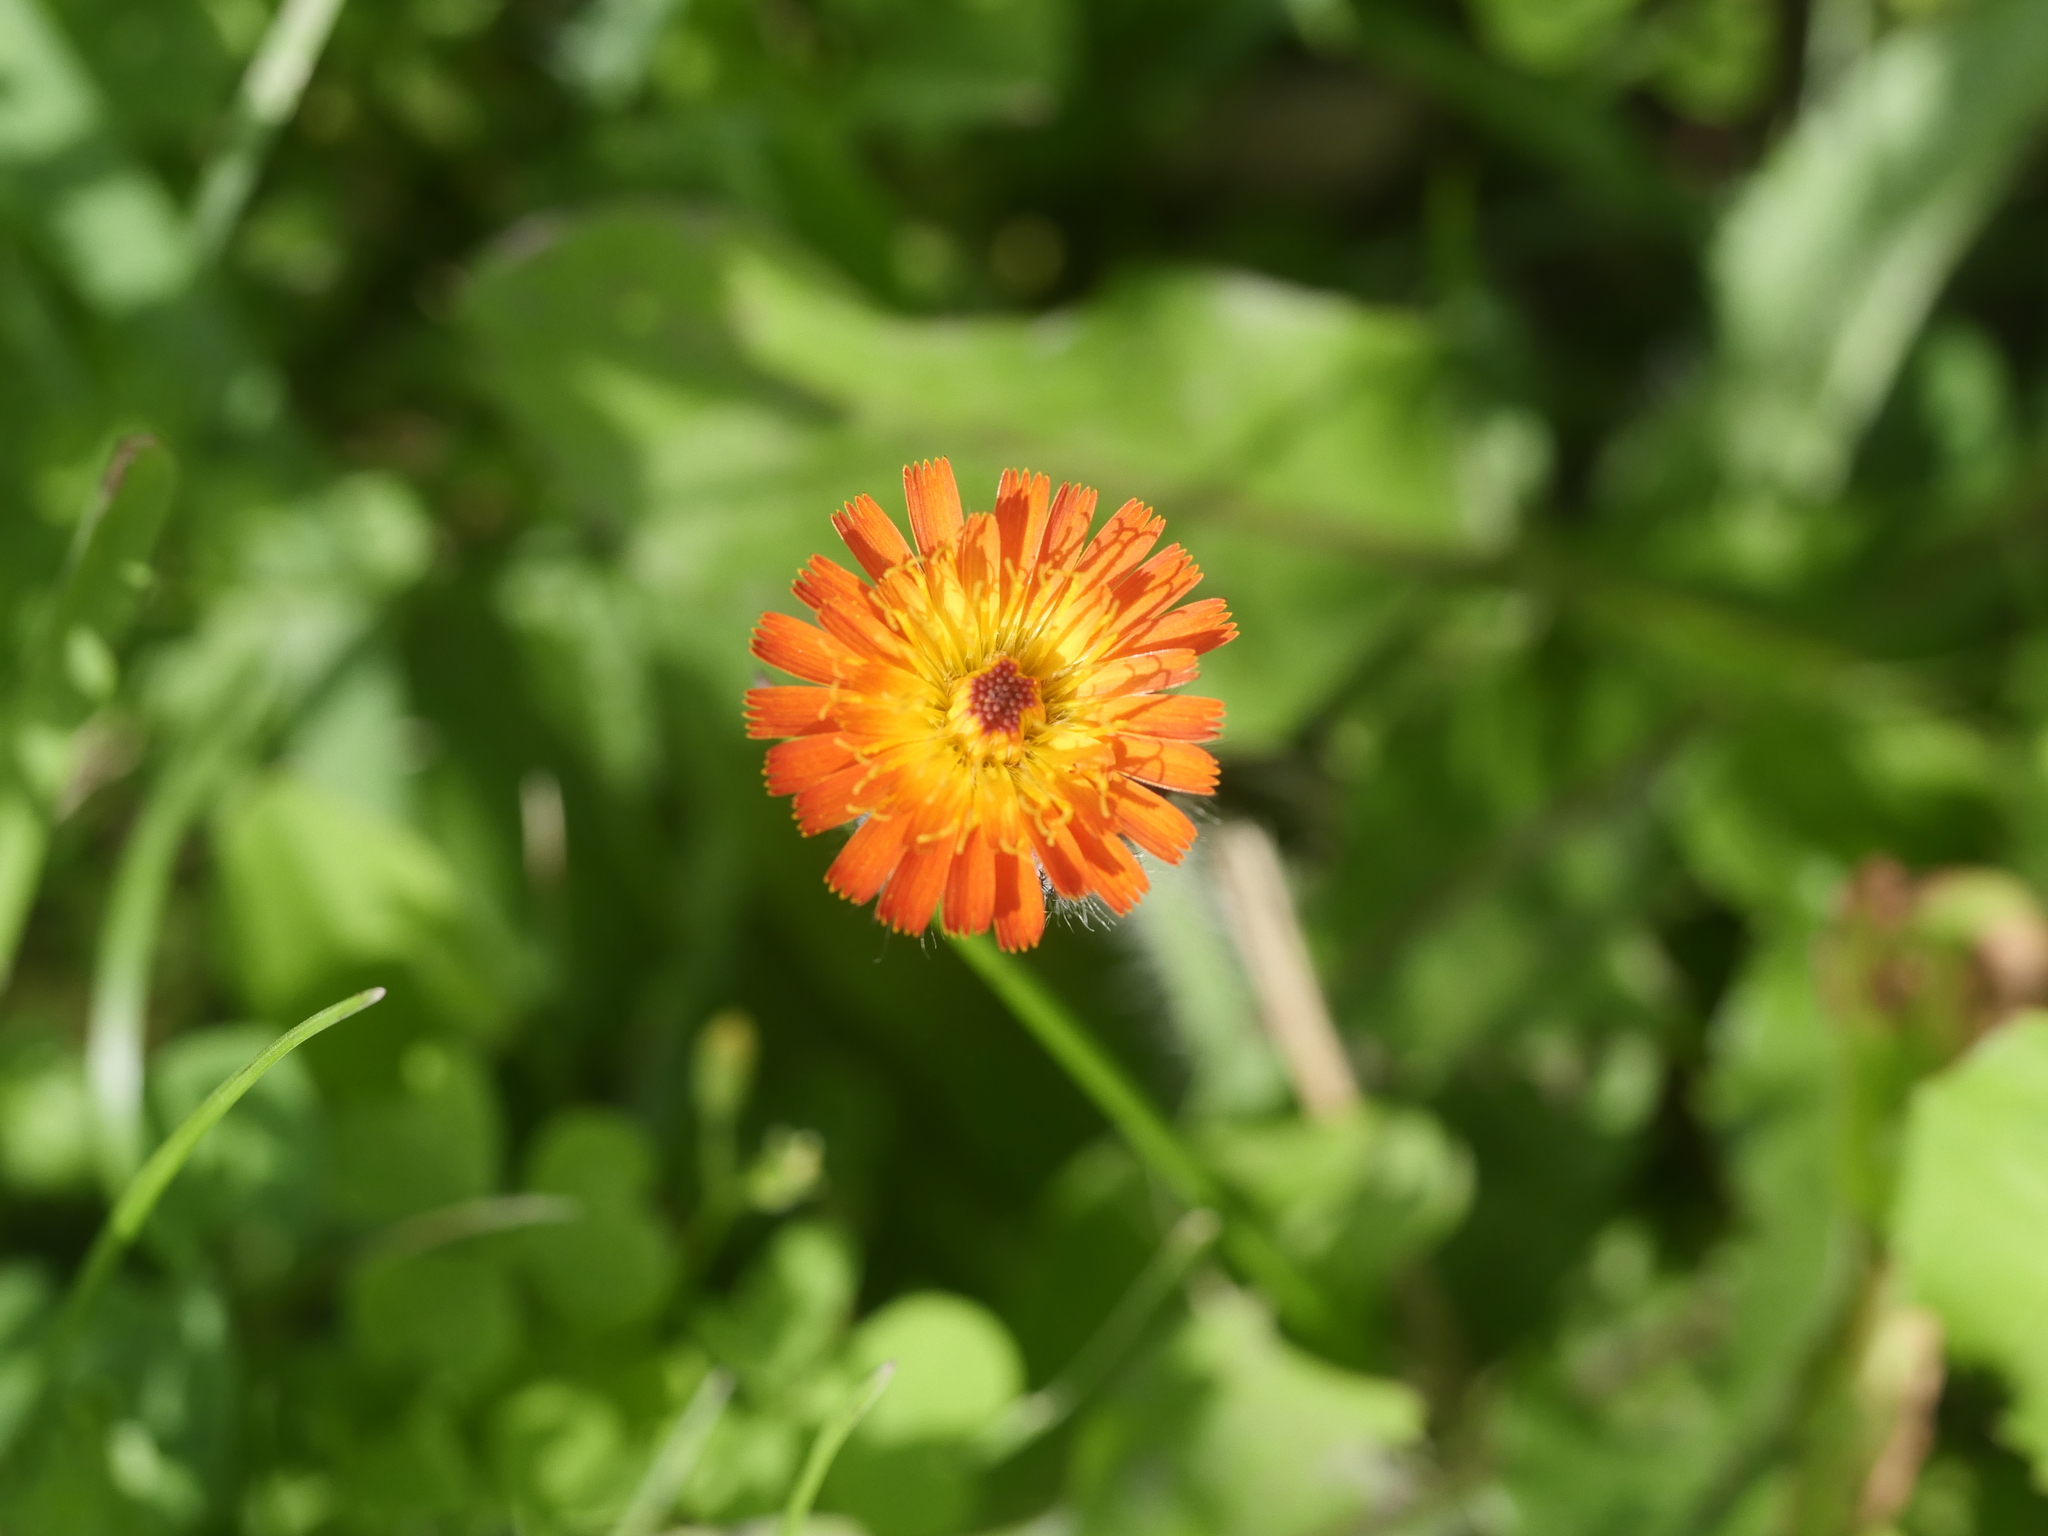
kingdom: Plantae
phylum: Tracheophyta
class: Magnoliopsida
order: Asterales
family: Asteraceae
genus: Pilosella
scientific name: Pilosella aurantiaca
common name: Fox-and-cubs
